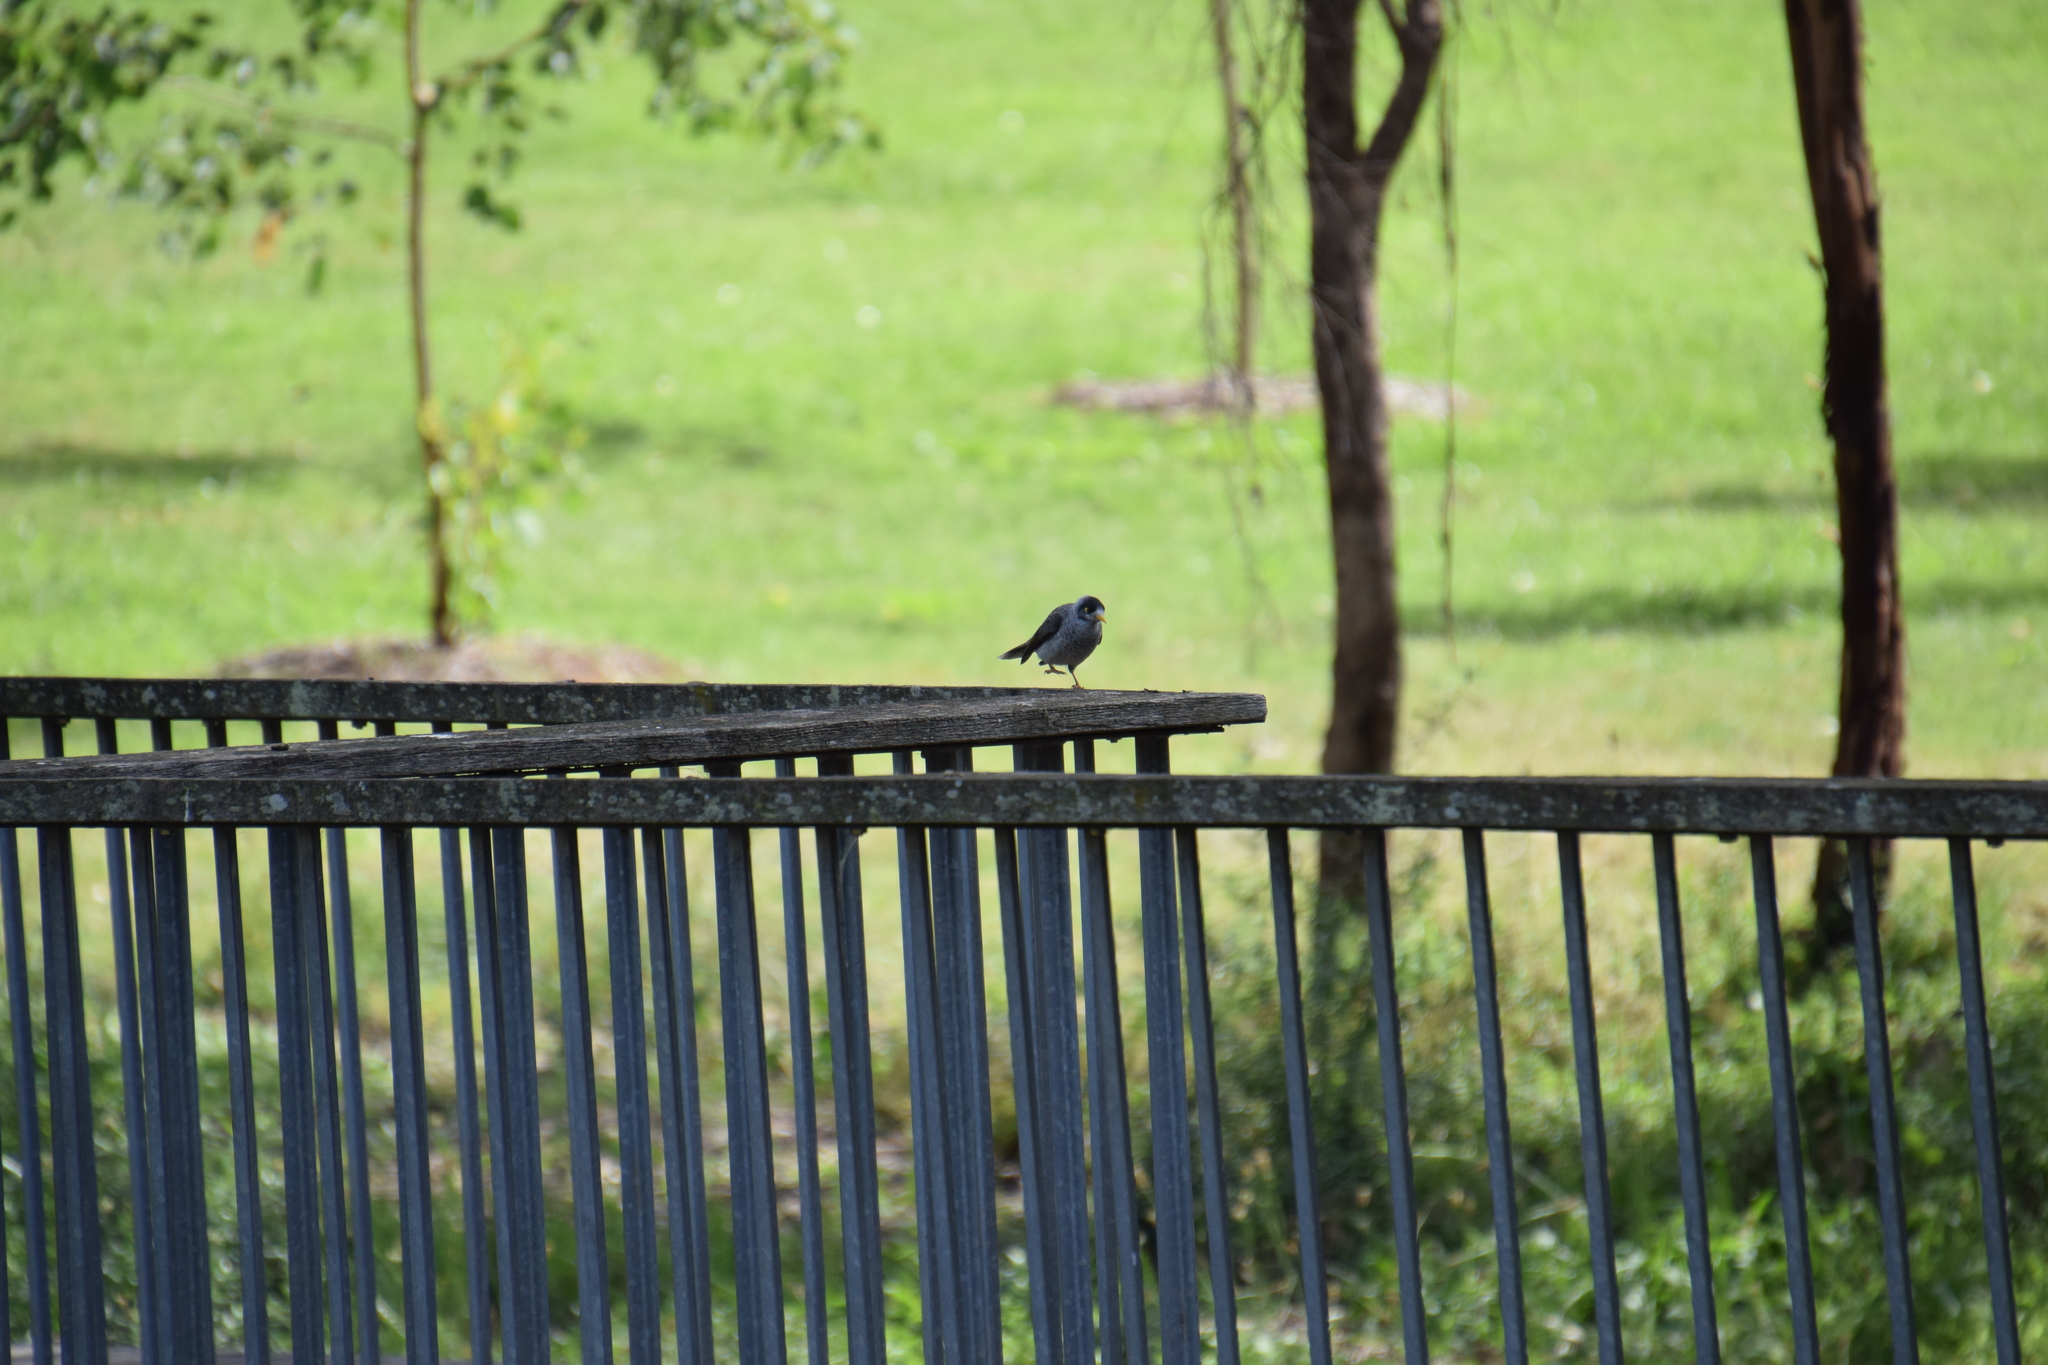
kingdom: Animalia
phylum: Chordata
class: Aves
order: Passeriformes
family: Meliphagidae
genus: Manorina
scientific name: Manorina melanocephala
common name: Noisy miner
